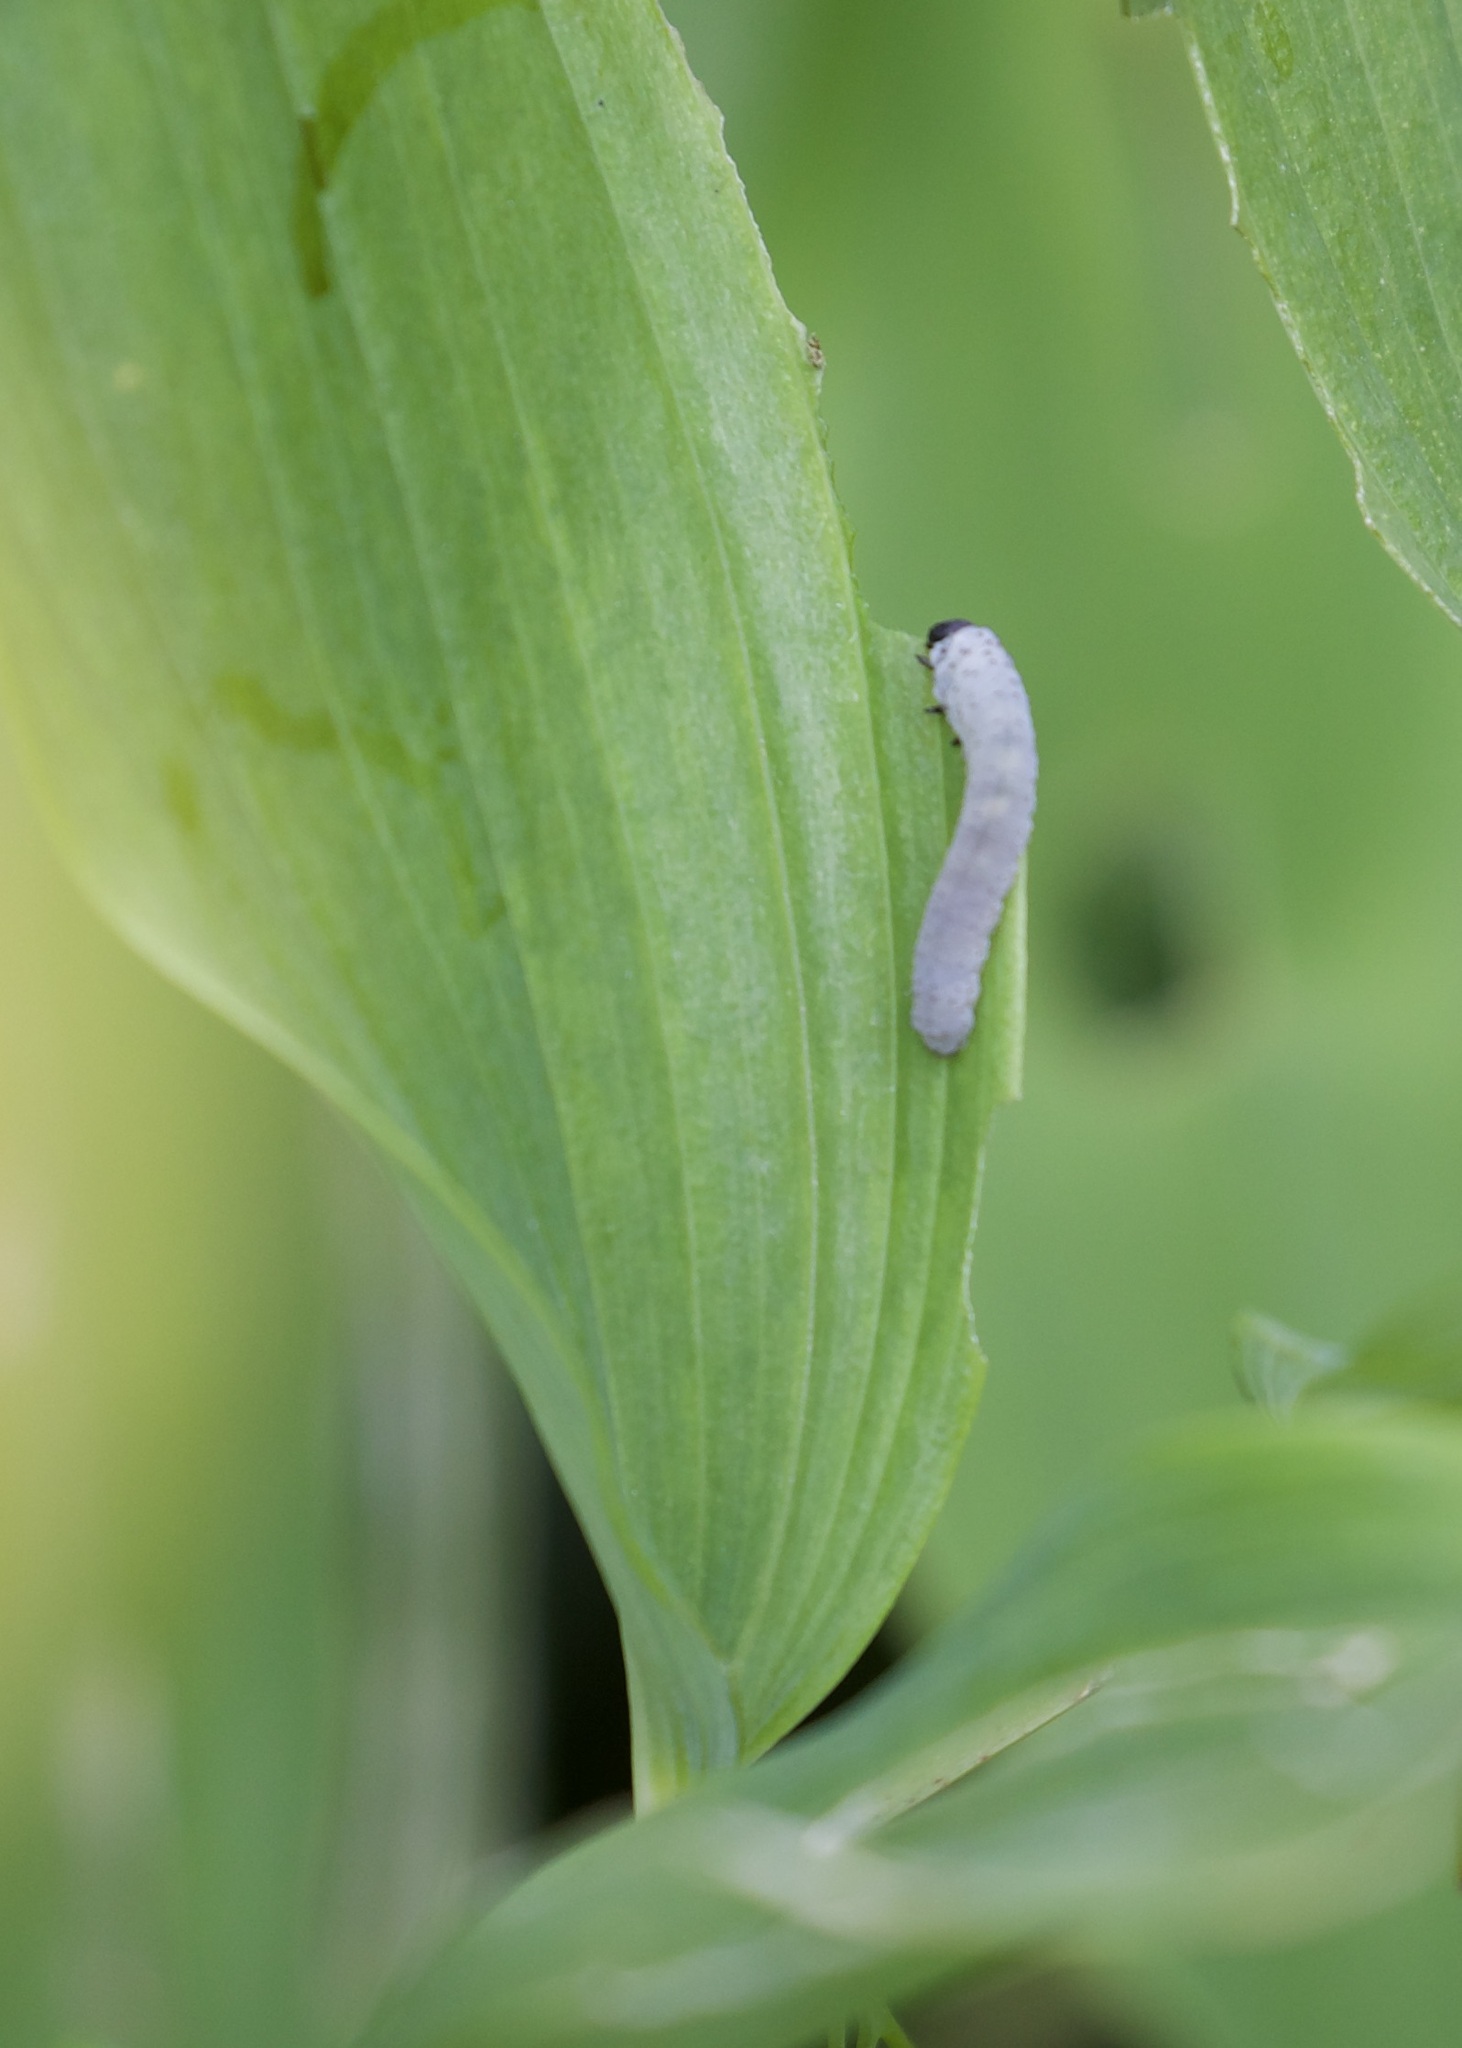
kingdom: Animalia
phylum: Arthropoda
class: Insecta
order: Hymenoptera
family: Tenthredinidae
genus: Phymatocera
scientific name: Phymatocera aterrima
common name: Solomon's-seal sawfly
